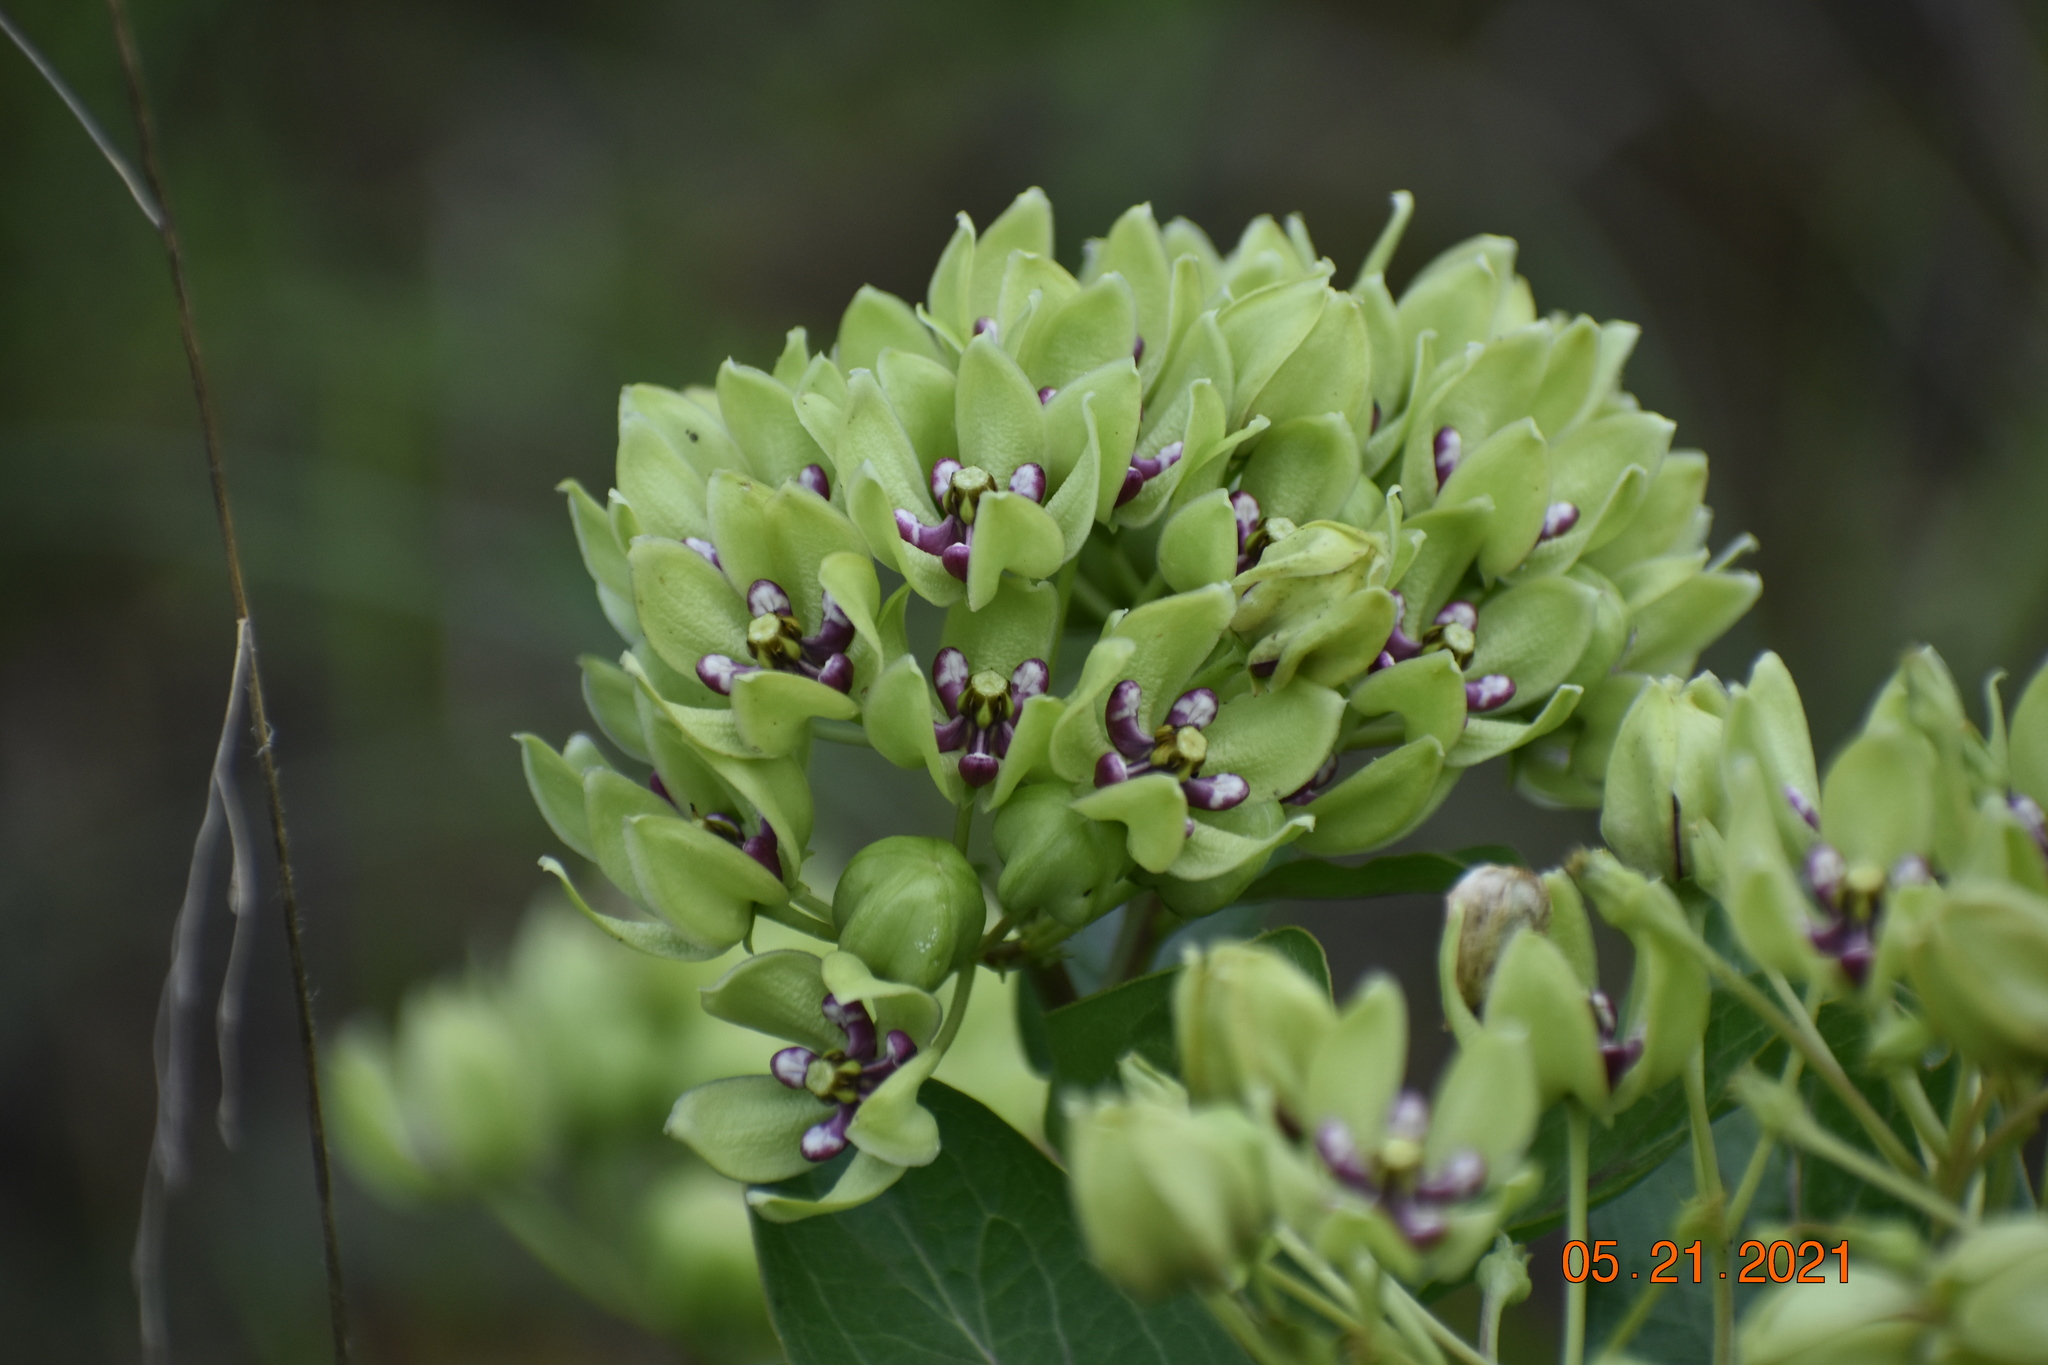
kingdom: Plantae
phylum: Tracheophyta
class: Magnoliopsida
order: Gentianales
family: Apocynaceae
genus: Asclepias
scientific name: Asclepias viridis
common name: Antelope-horns
